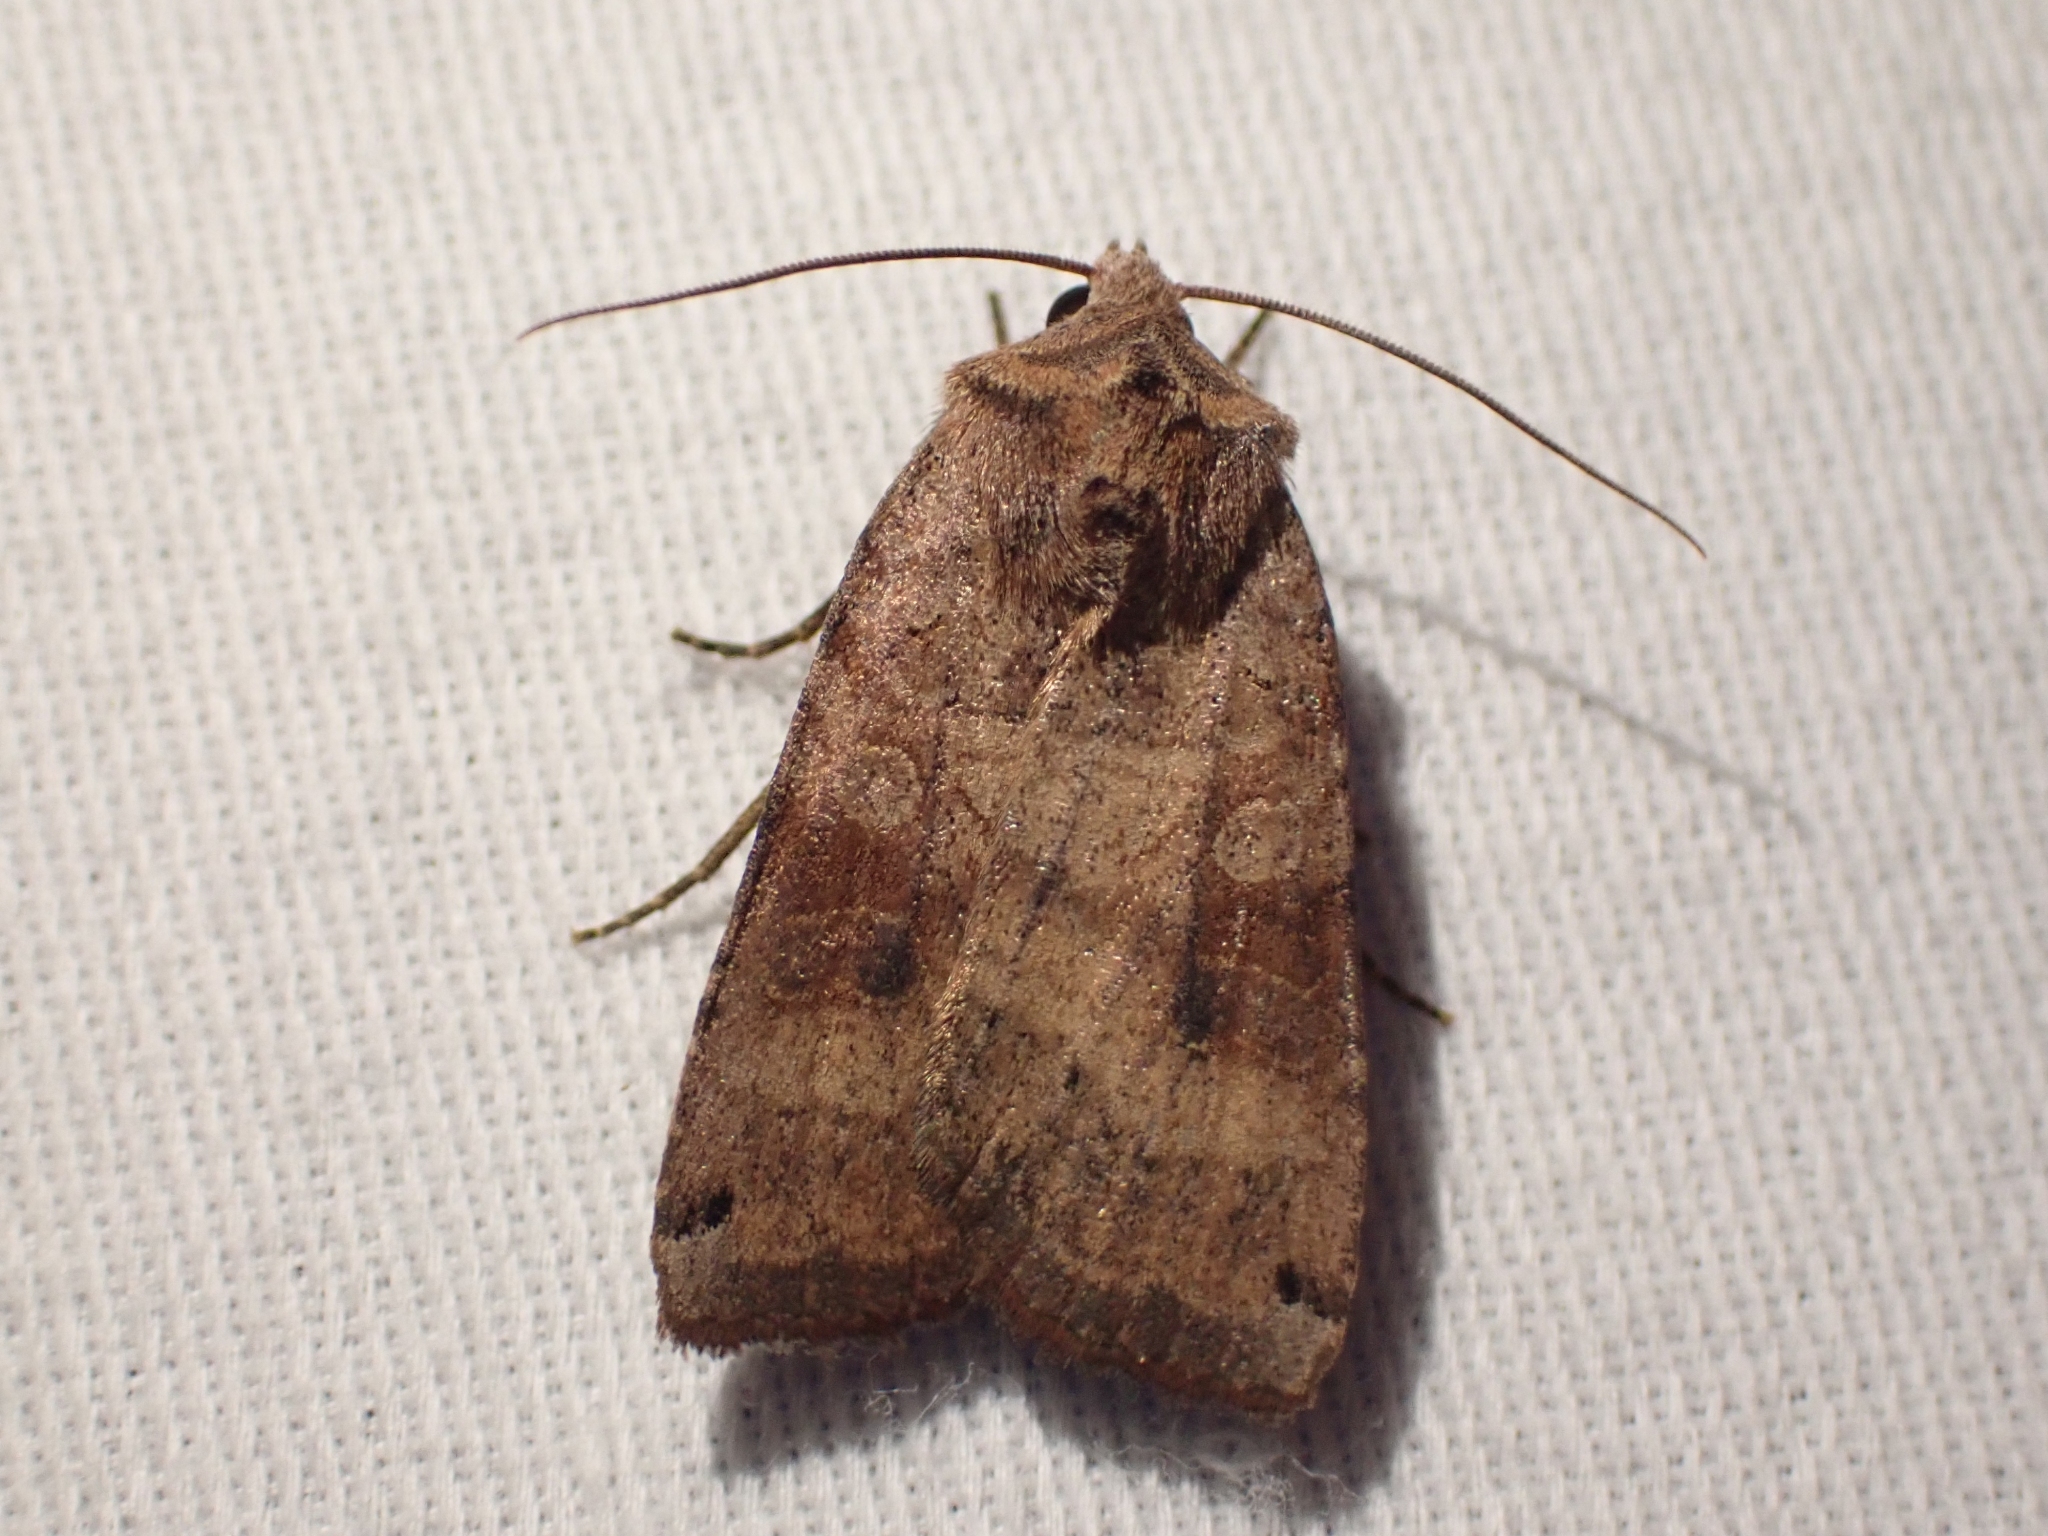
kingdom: Animalia
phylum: Arthropoda
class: Insecta
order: Lepidoptera
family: Noctuidae
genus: Xestia
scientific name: Xestia smithii
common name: Smith's dart
